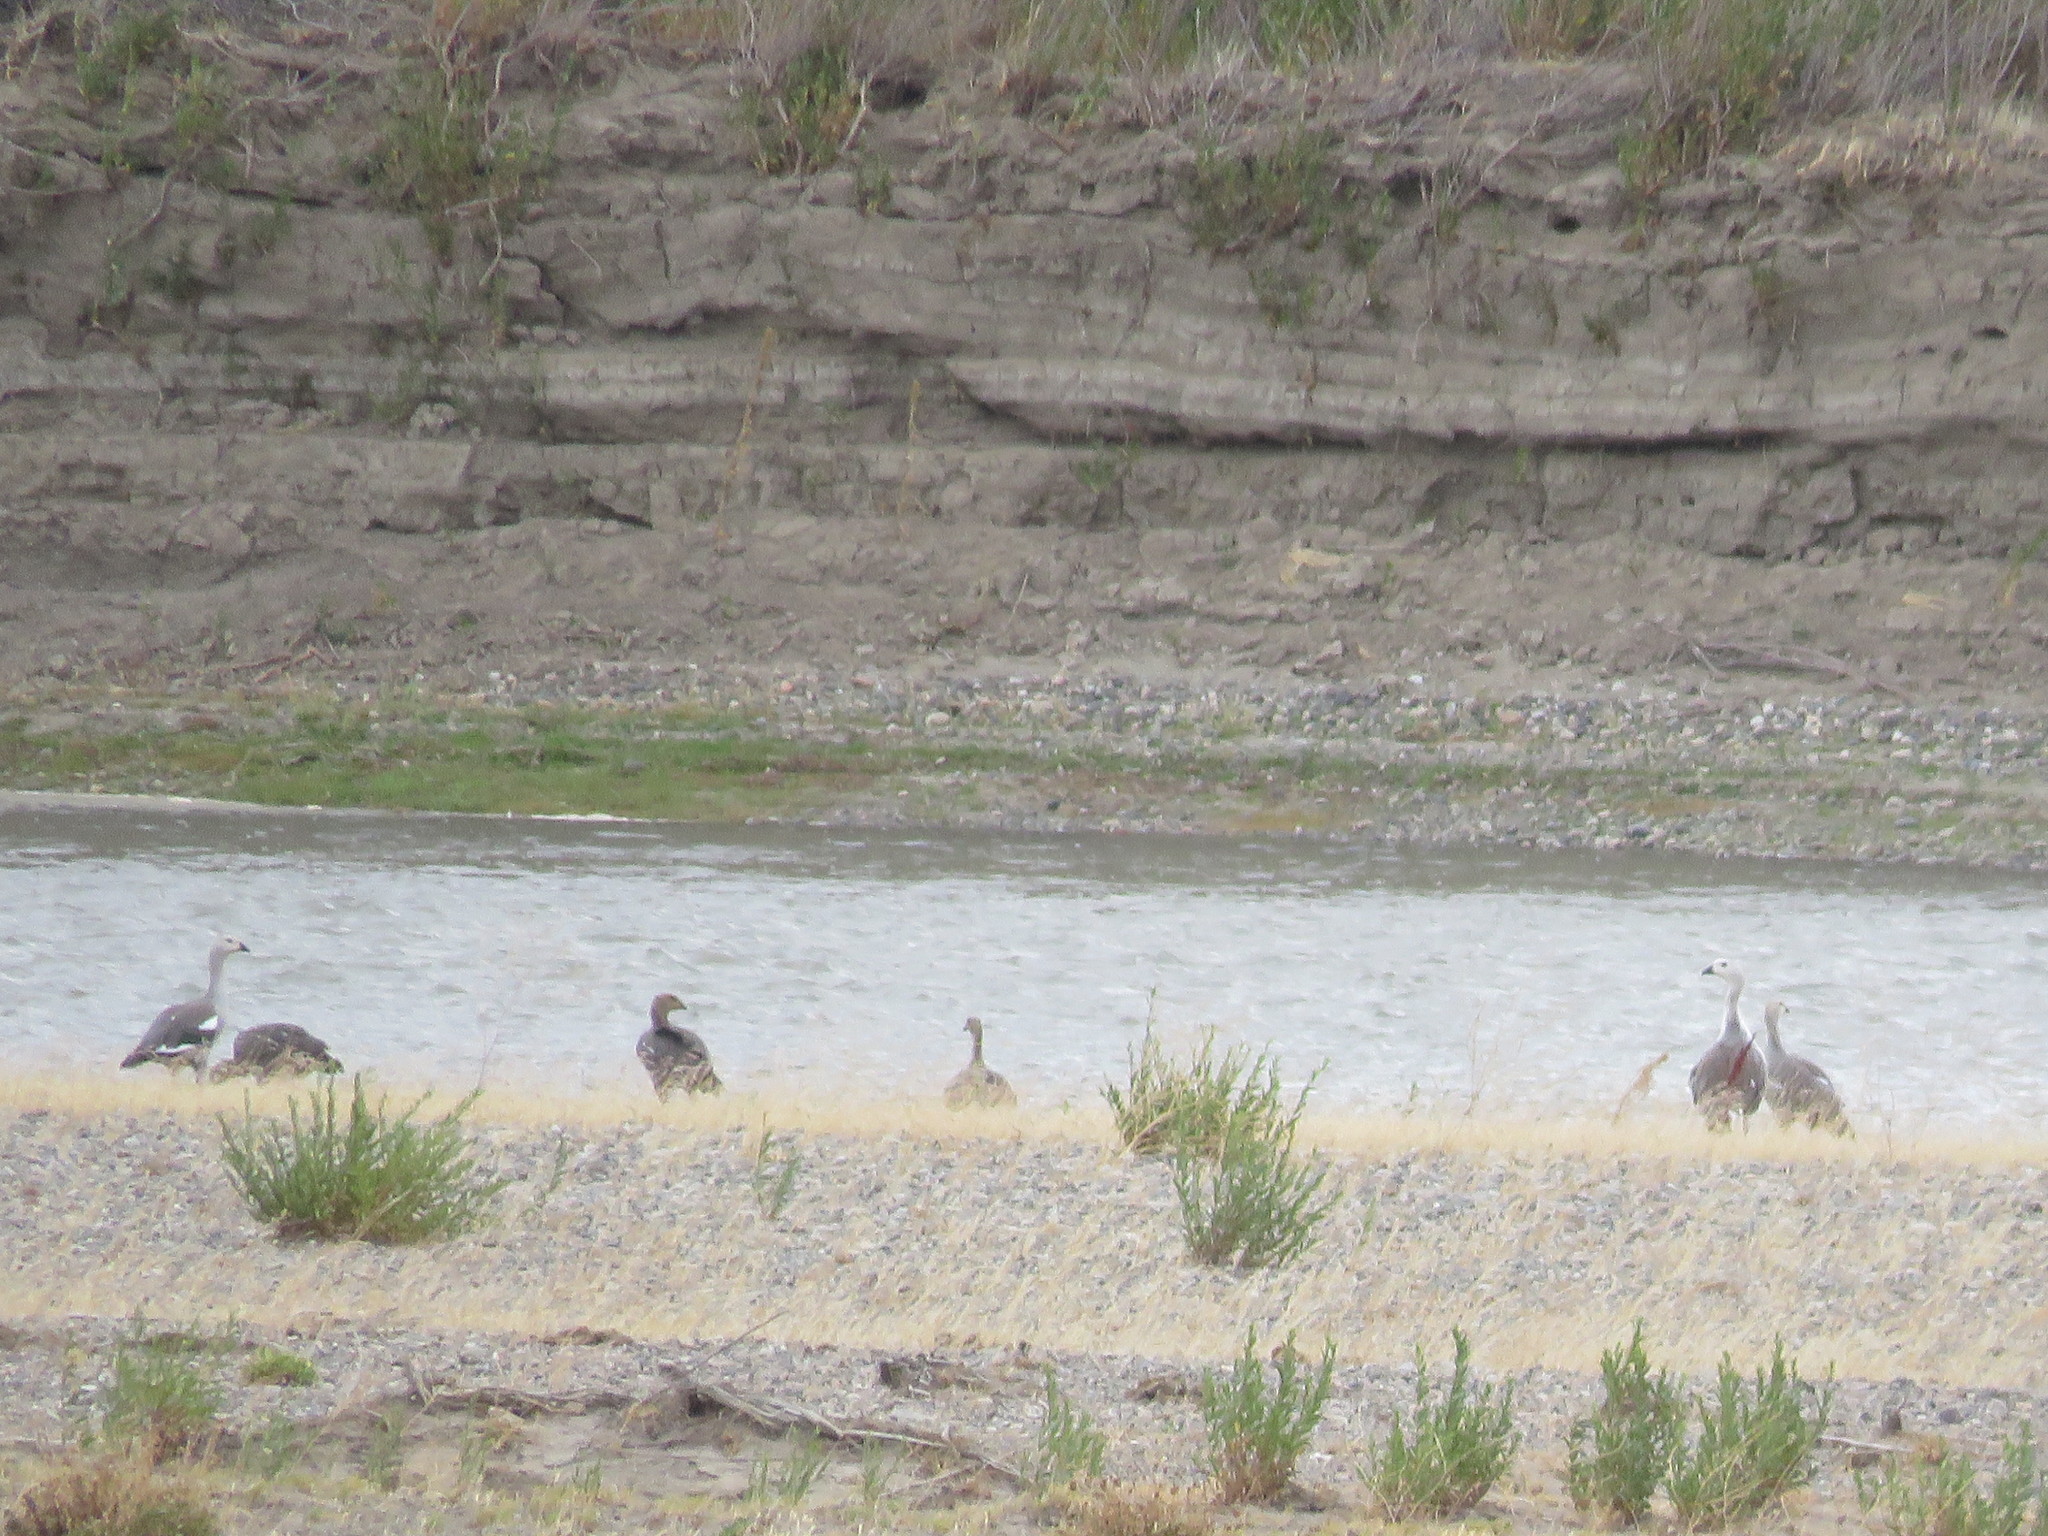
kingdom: Animalia
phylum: Chordata
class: Aves
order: Anseriformes
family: Anatidae
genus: Chloephaga
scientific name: Chloephaga picta
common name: Upland goose
